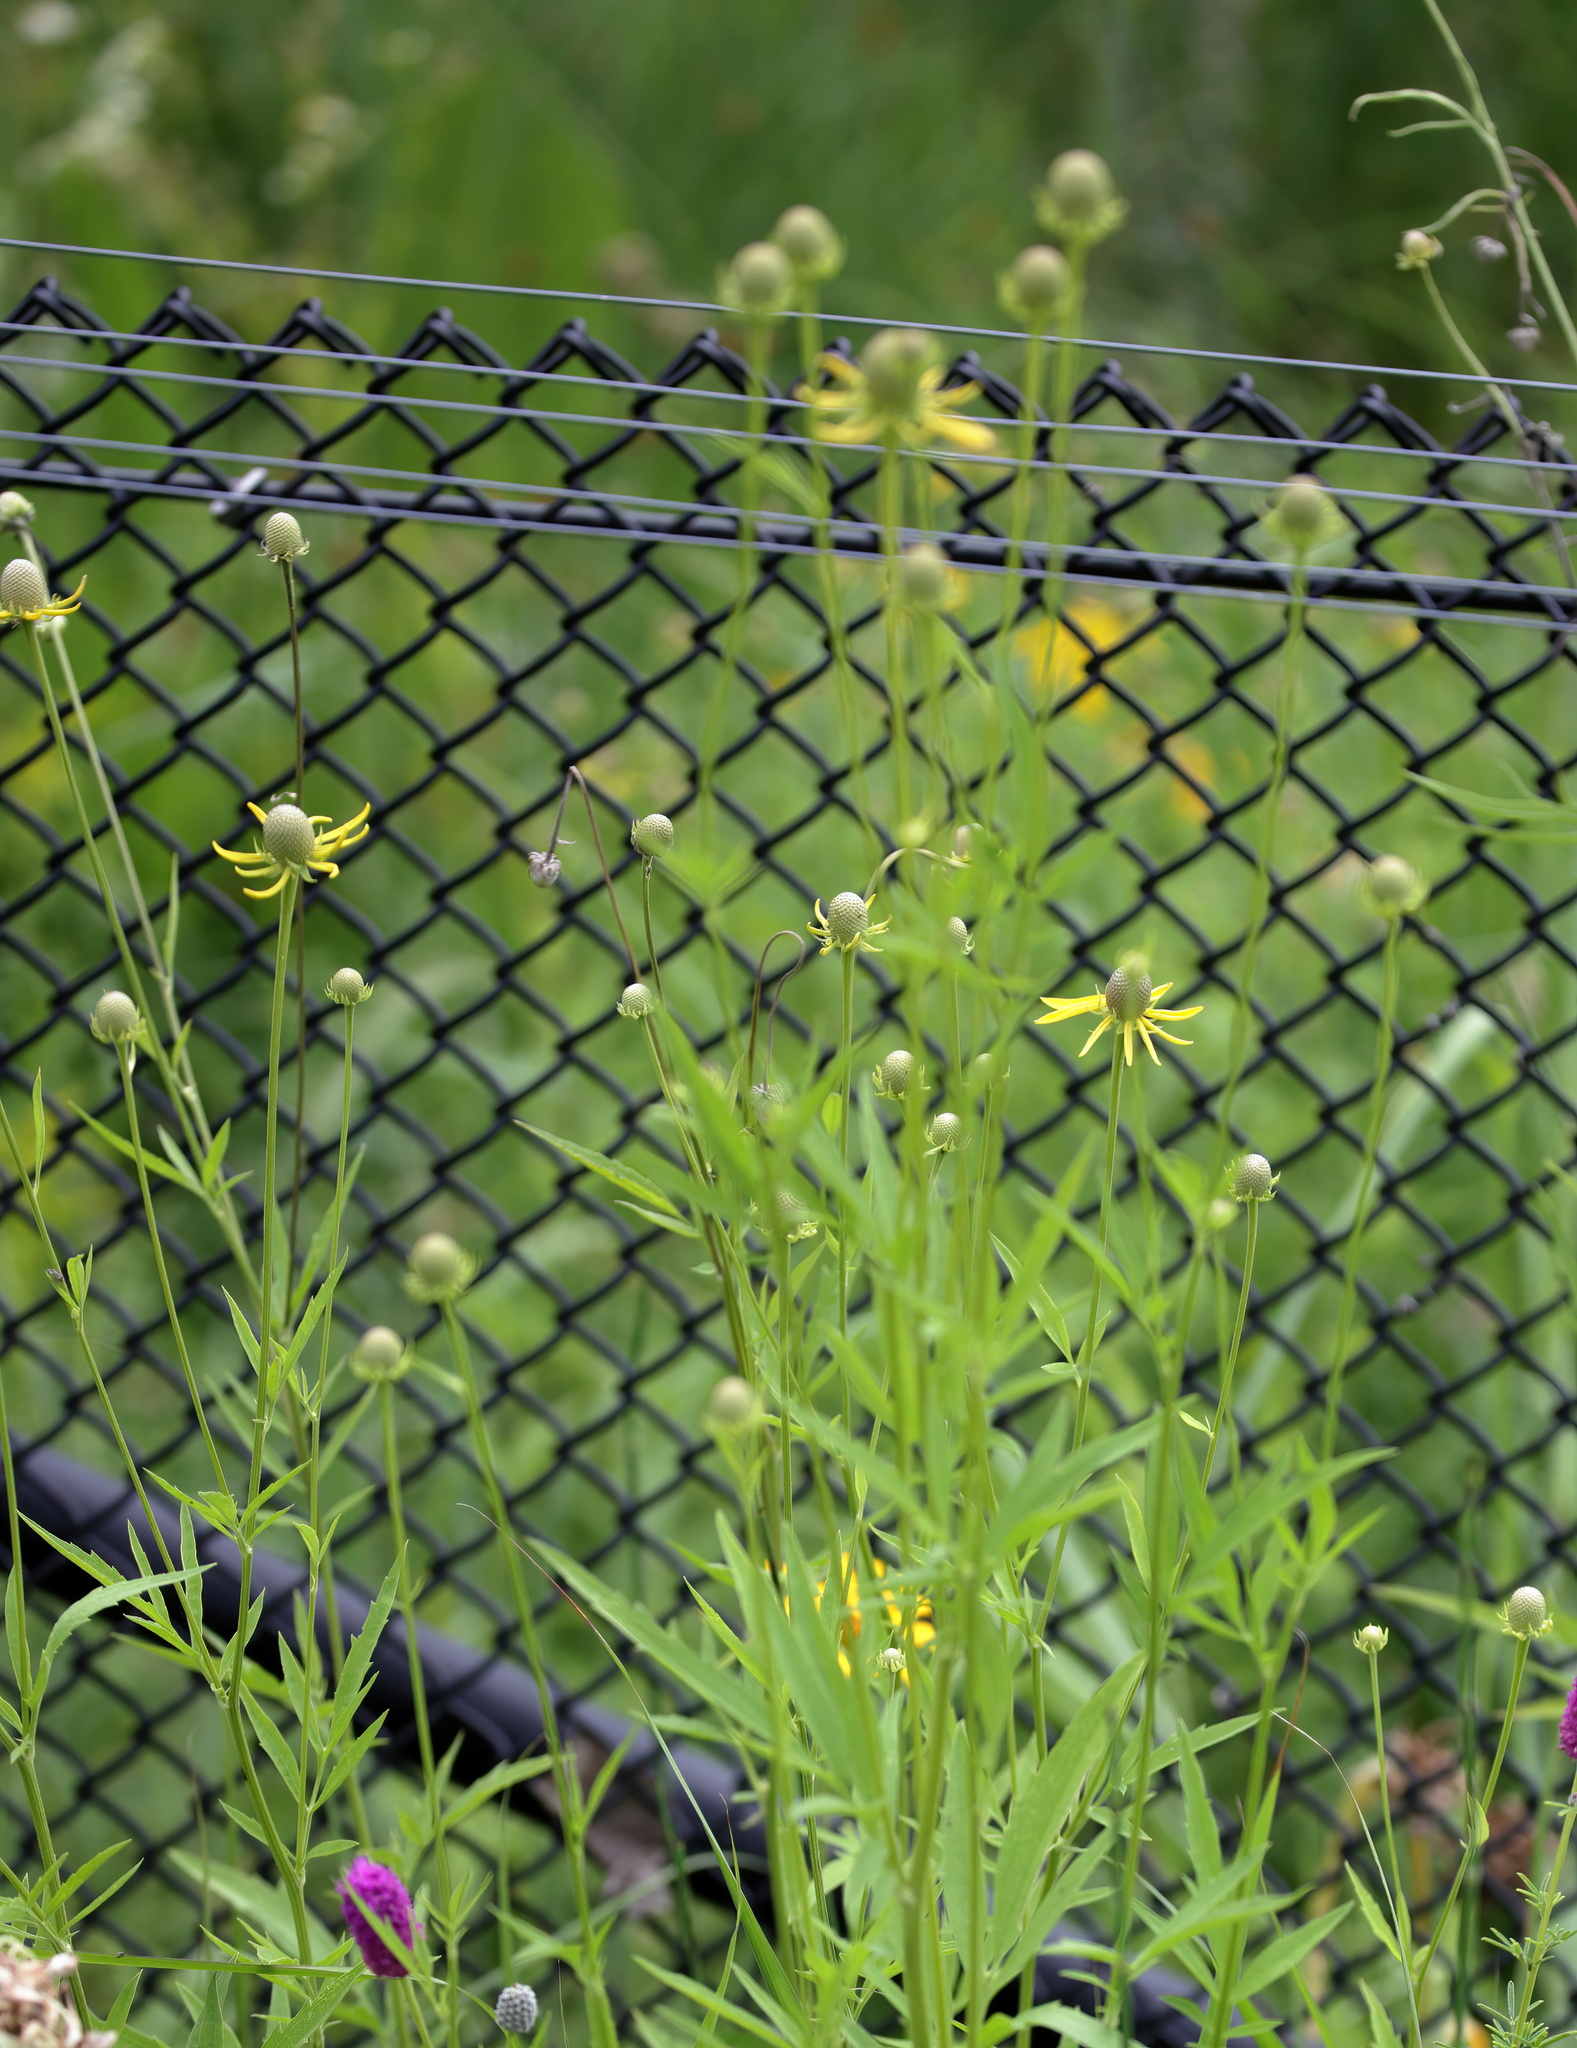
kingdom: Plantae
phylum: Tracheophyta
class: Magnoliopsida
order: Asterales
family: Asteraceae
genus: Ratibida
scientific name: Ratibida pinnata
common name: Drooping prairie-coneflower
